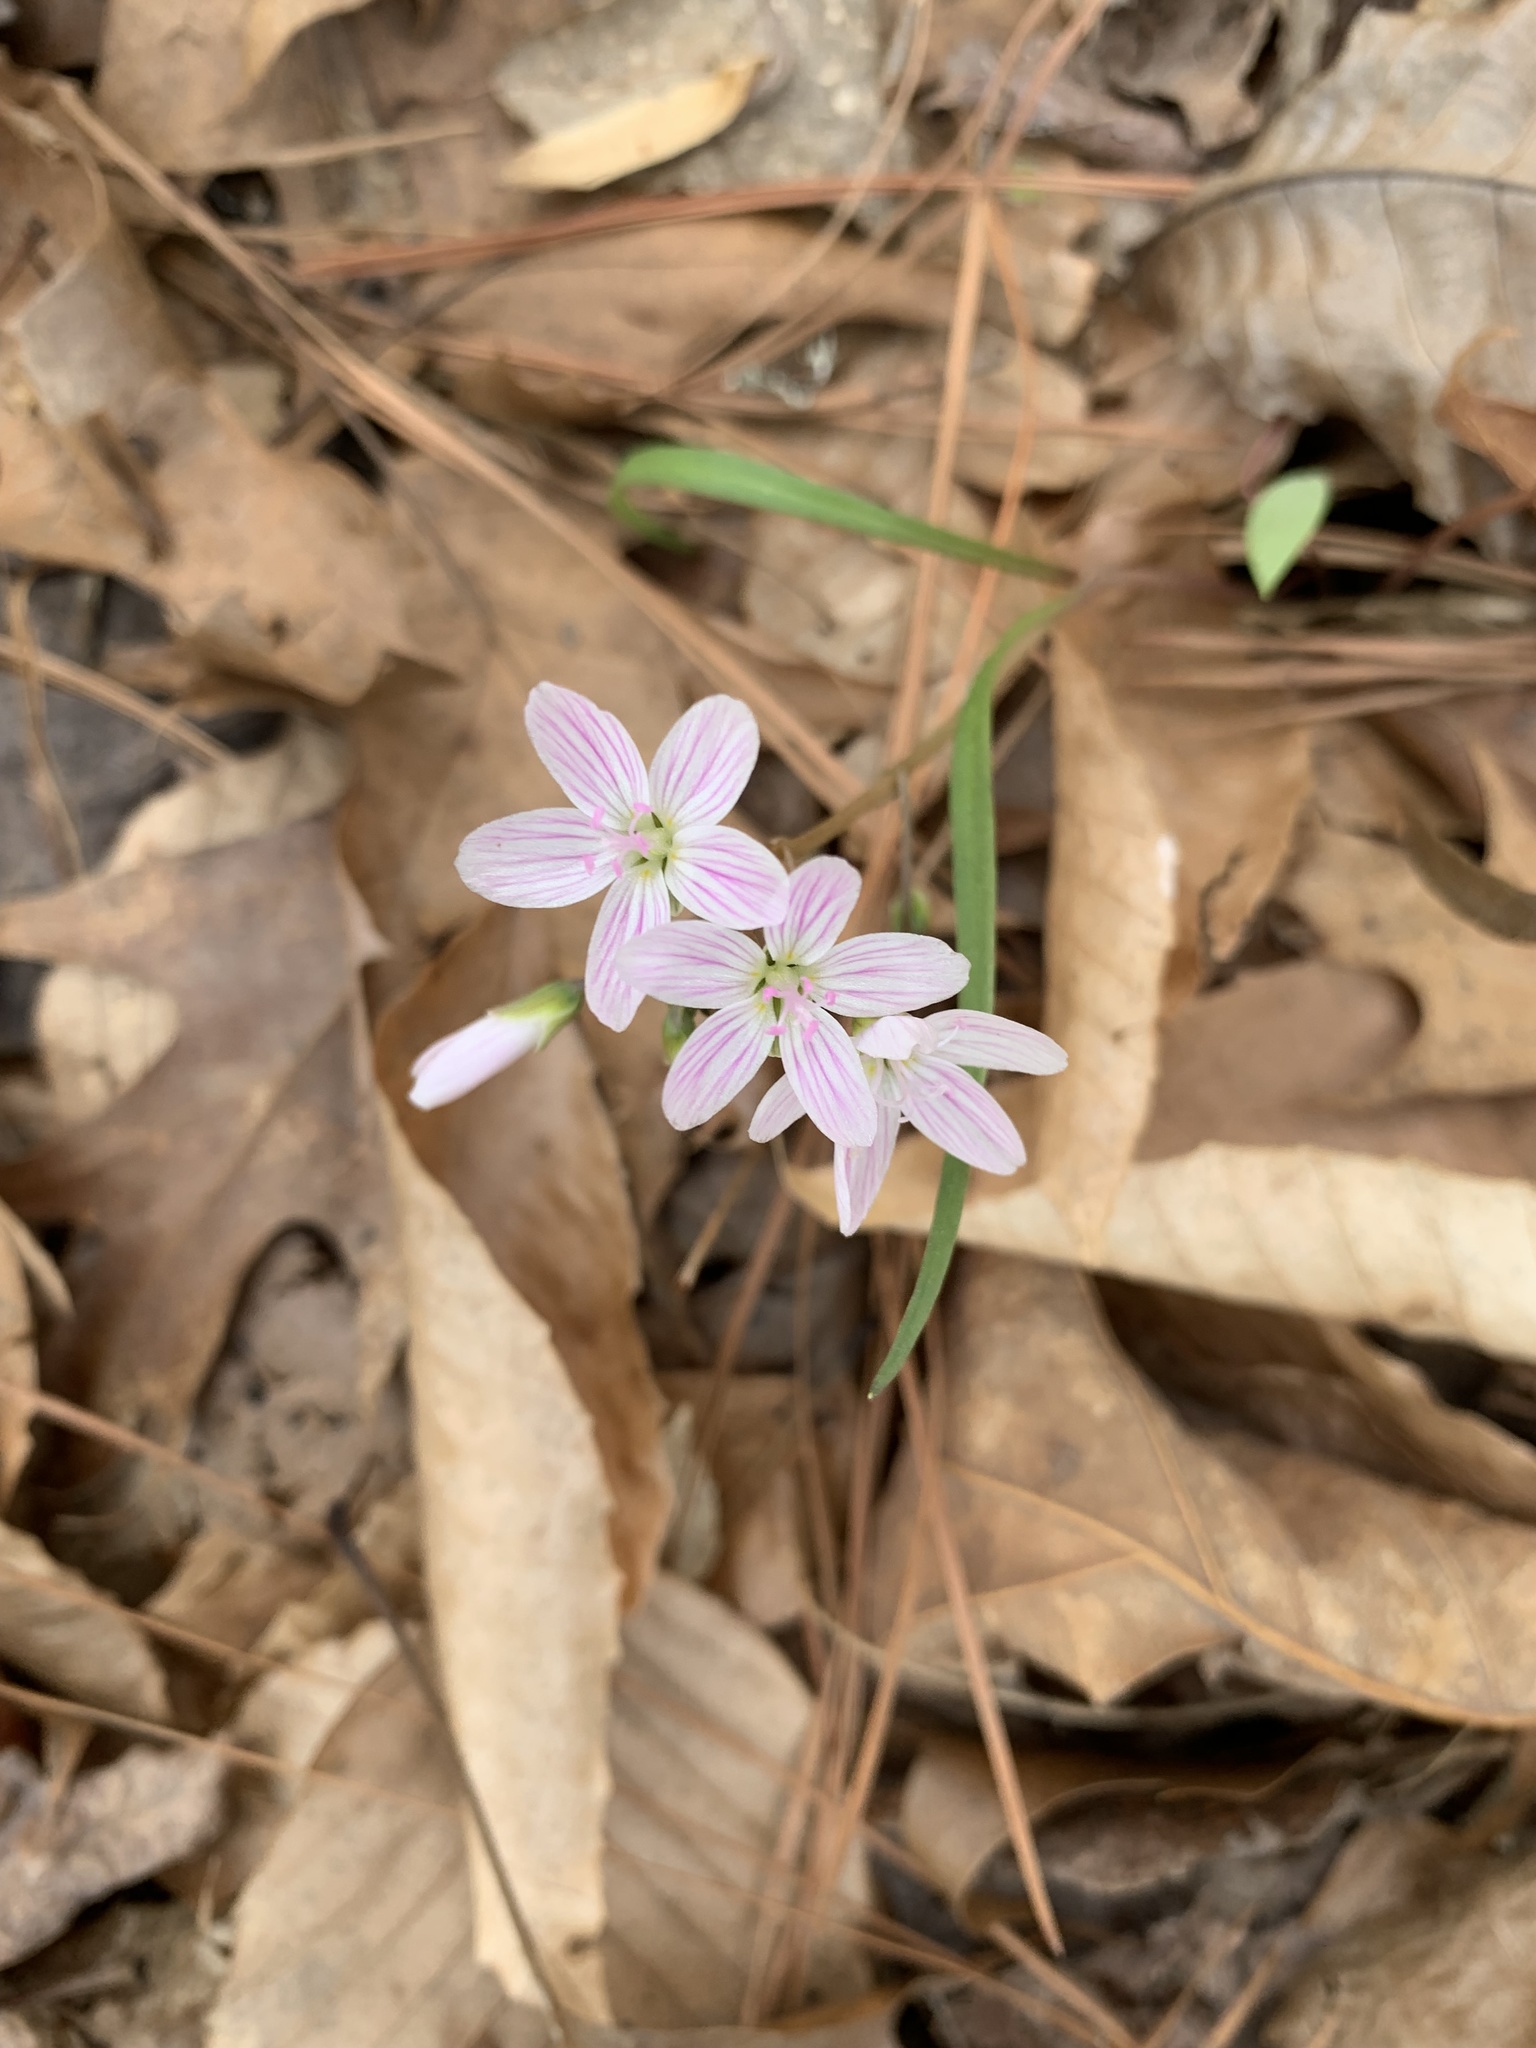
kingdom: Plantae
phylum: Tracheophyta
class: Magnoliopsida
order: Caryophyllales
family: Montiaceae
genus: Claytonia
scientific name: Claytonia virginica
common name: Virginia springbeauty
